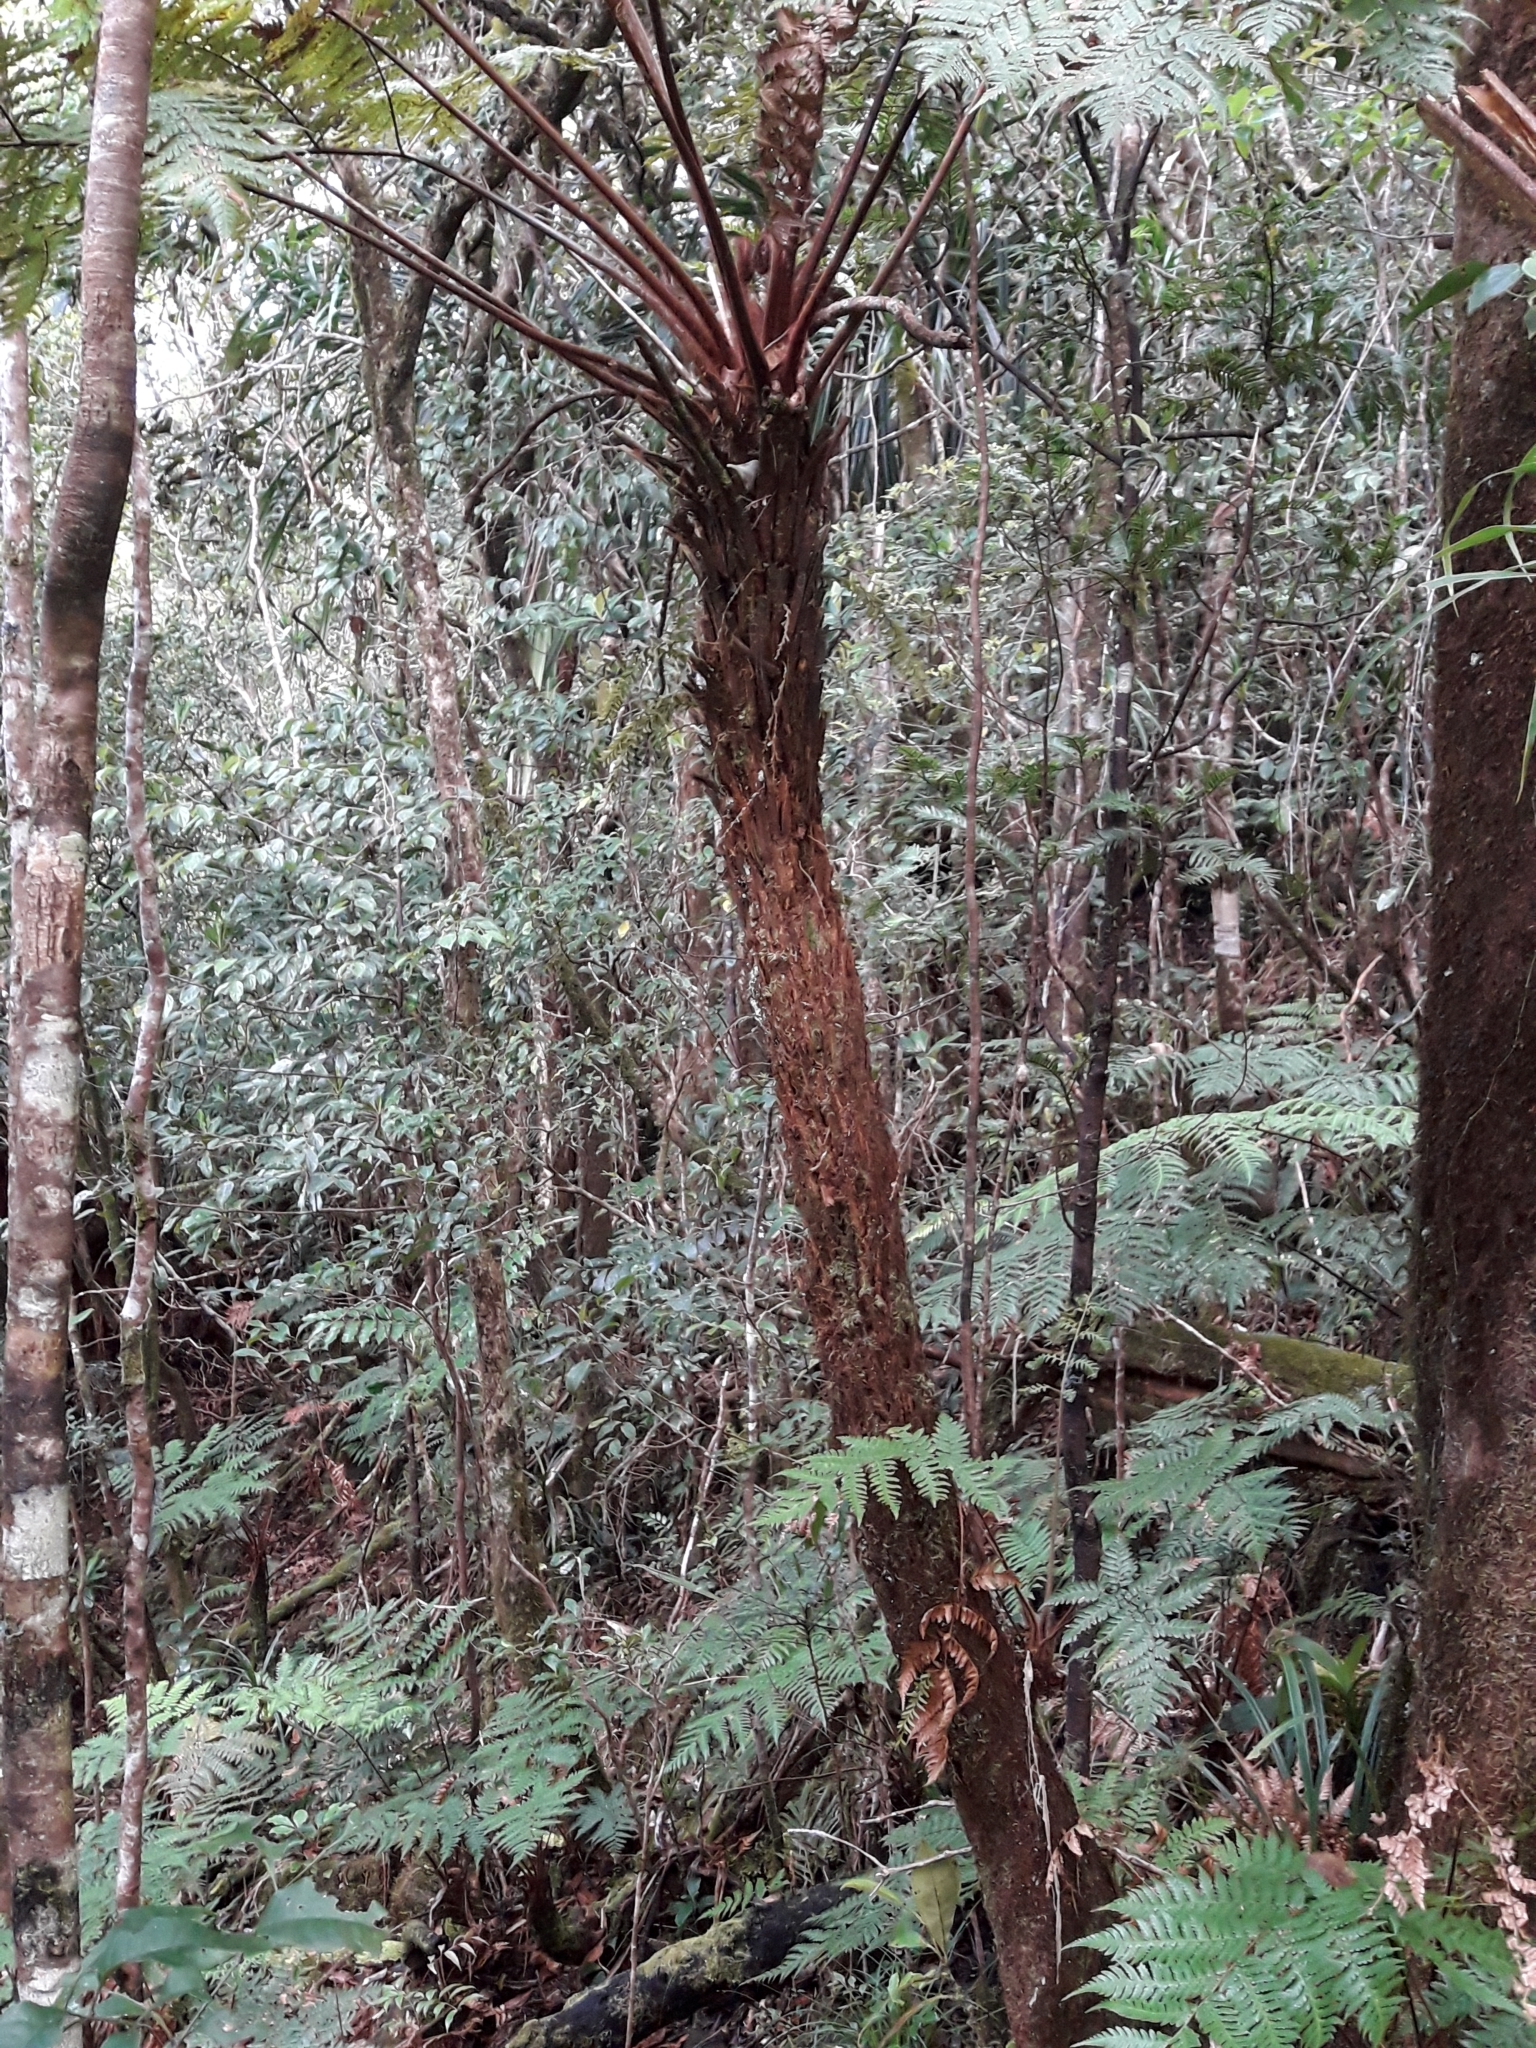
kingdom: Plantae
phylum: Tracheophyta
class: Polypodiopsida
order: Cyatheales
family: Dicksoniaceae
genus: Dicksonia
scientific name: Dicksonia baudouinii
